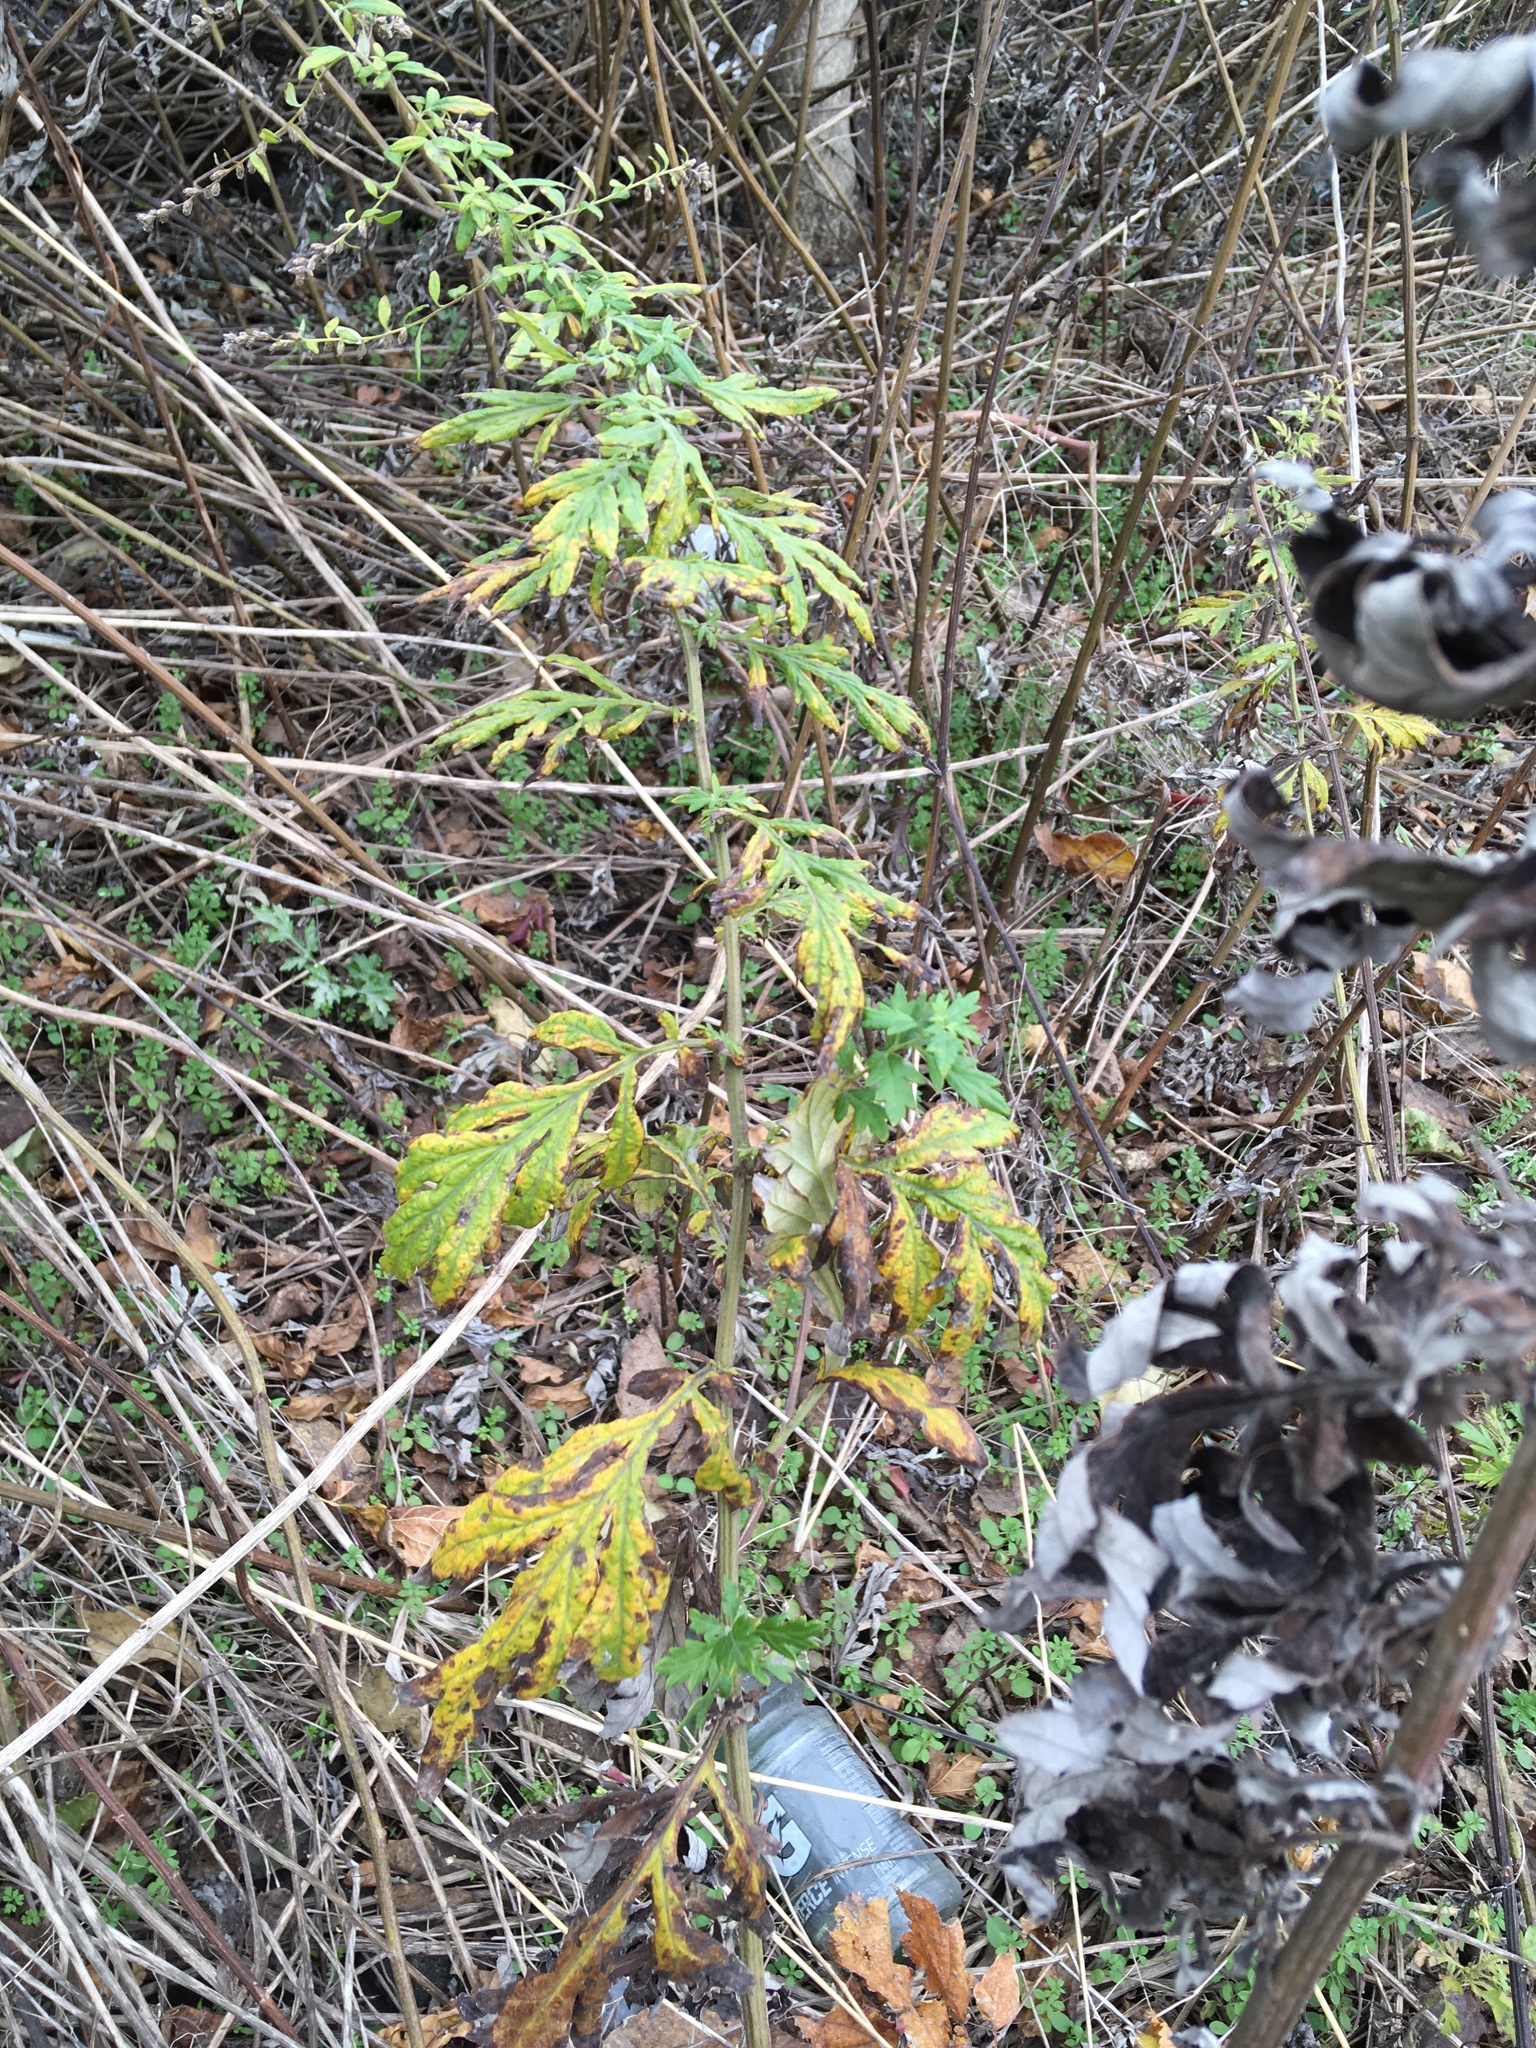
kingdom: Plantae
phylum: Tracheophyta
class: Magnoliopsida
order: Asterales
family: Asteraceae
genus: Artemisia
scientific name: Artemisia vulgaris
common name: Mugwort
